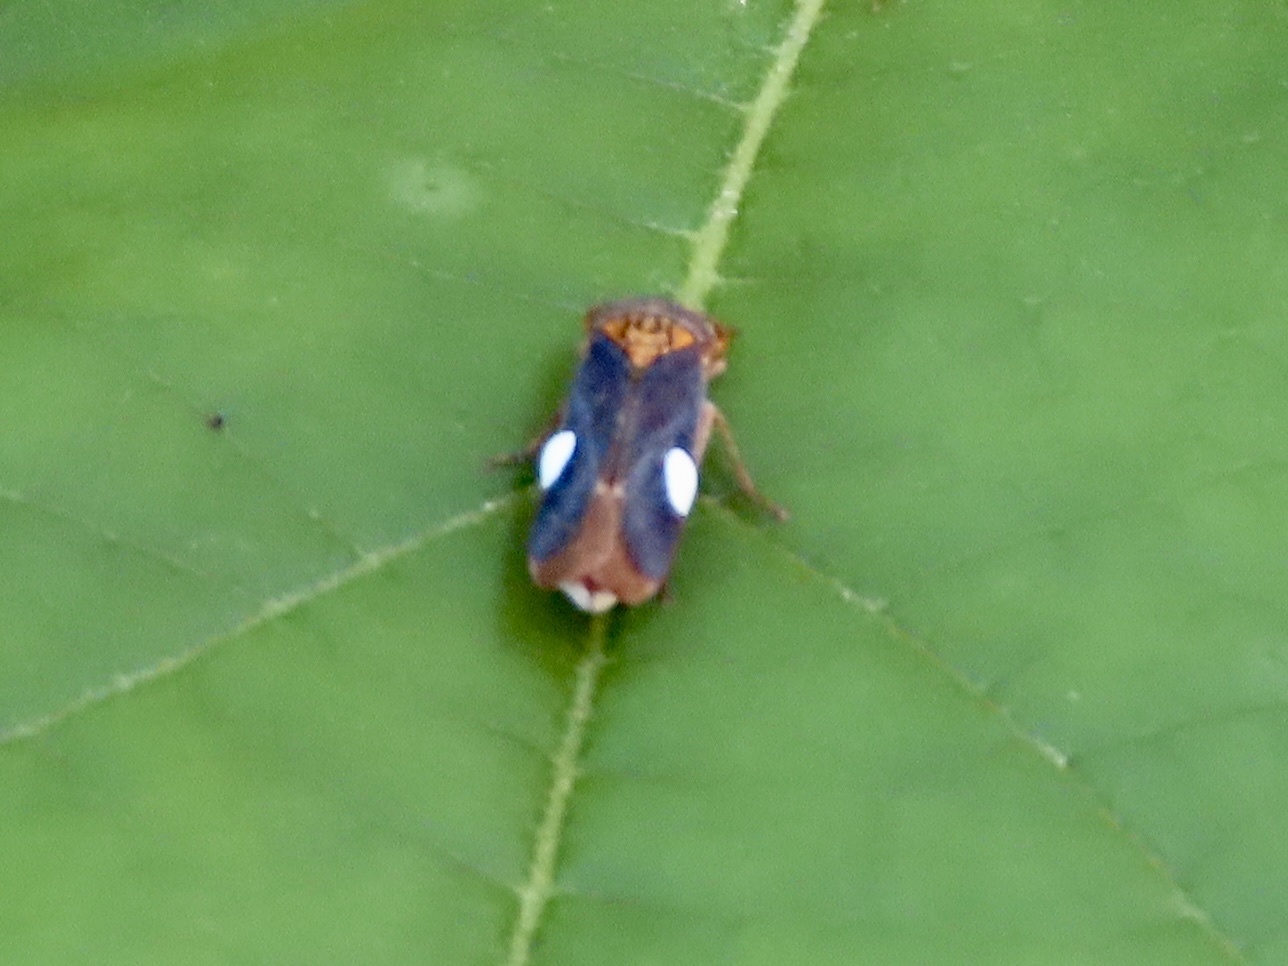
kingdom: Animalia
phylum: Arthropoda
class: Insecta
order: Hemiptera
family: Cicadellidae
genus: Oncometopia
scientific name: Oncometopia orbona
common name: Broad-headed sharpshooter
